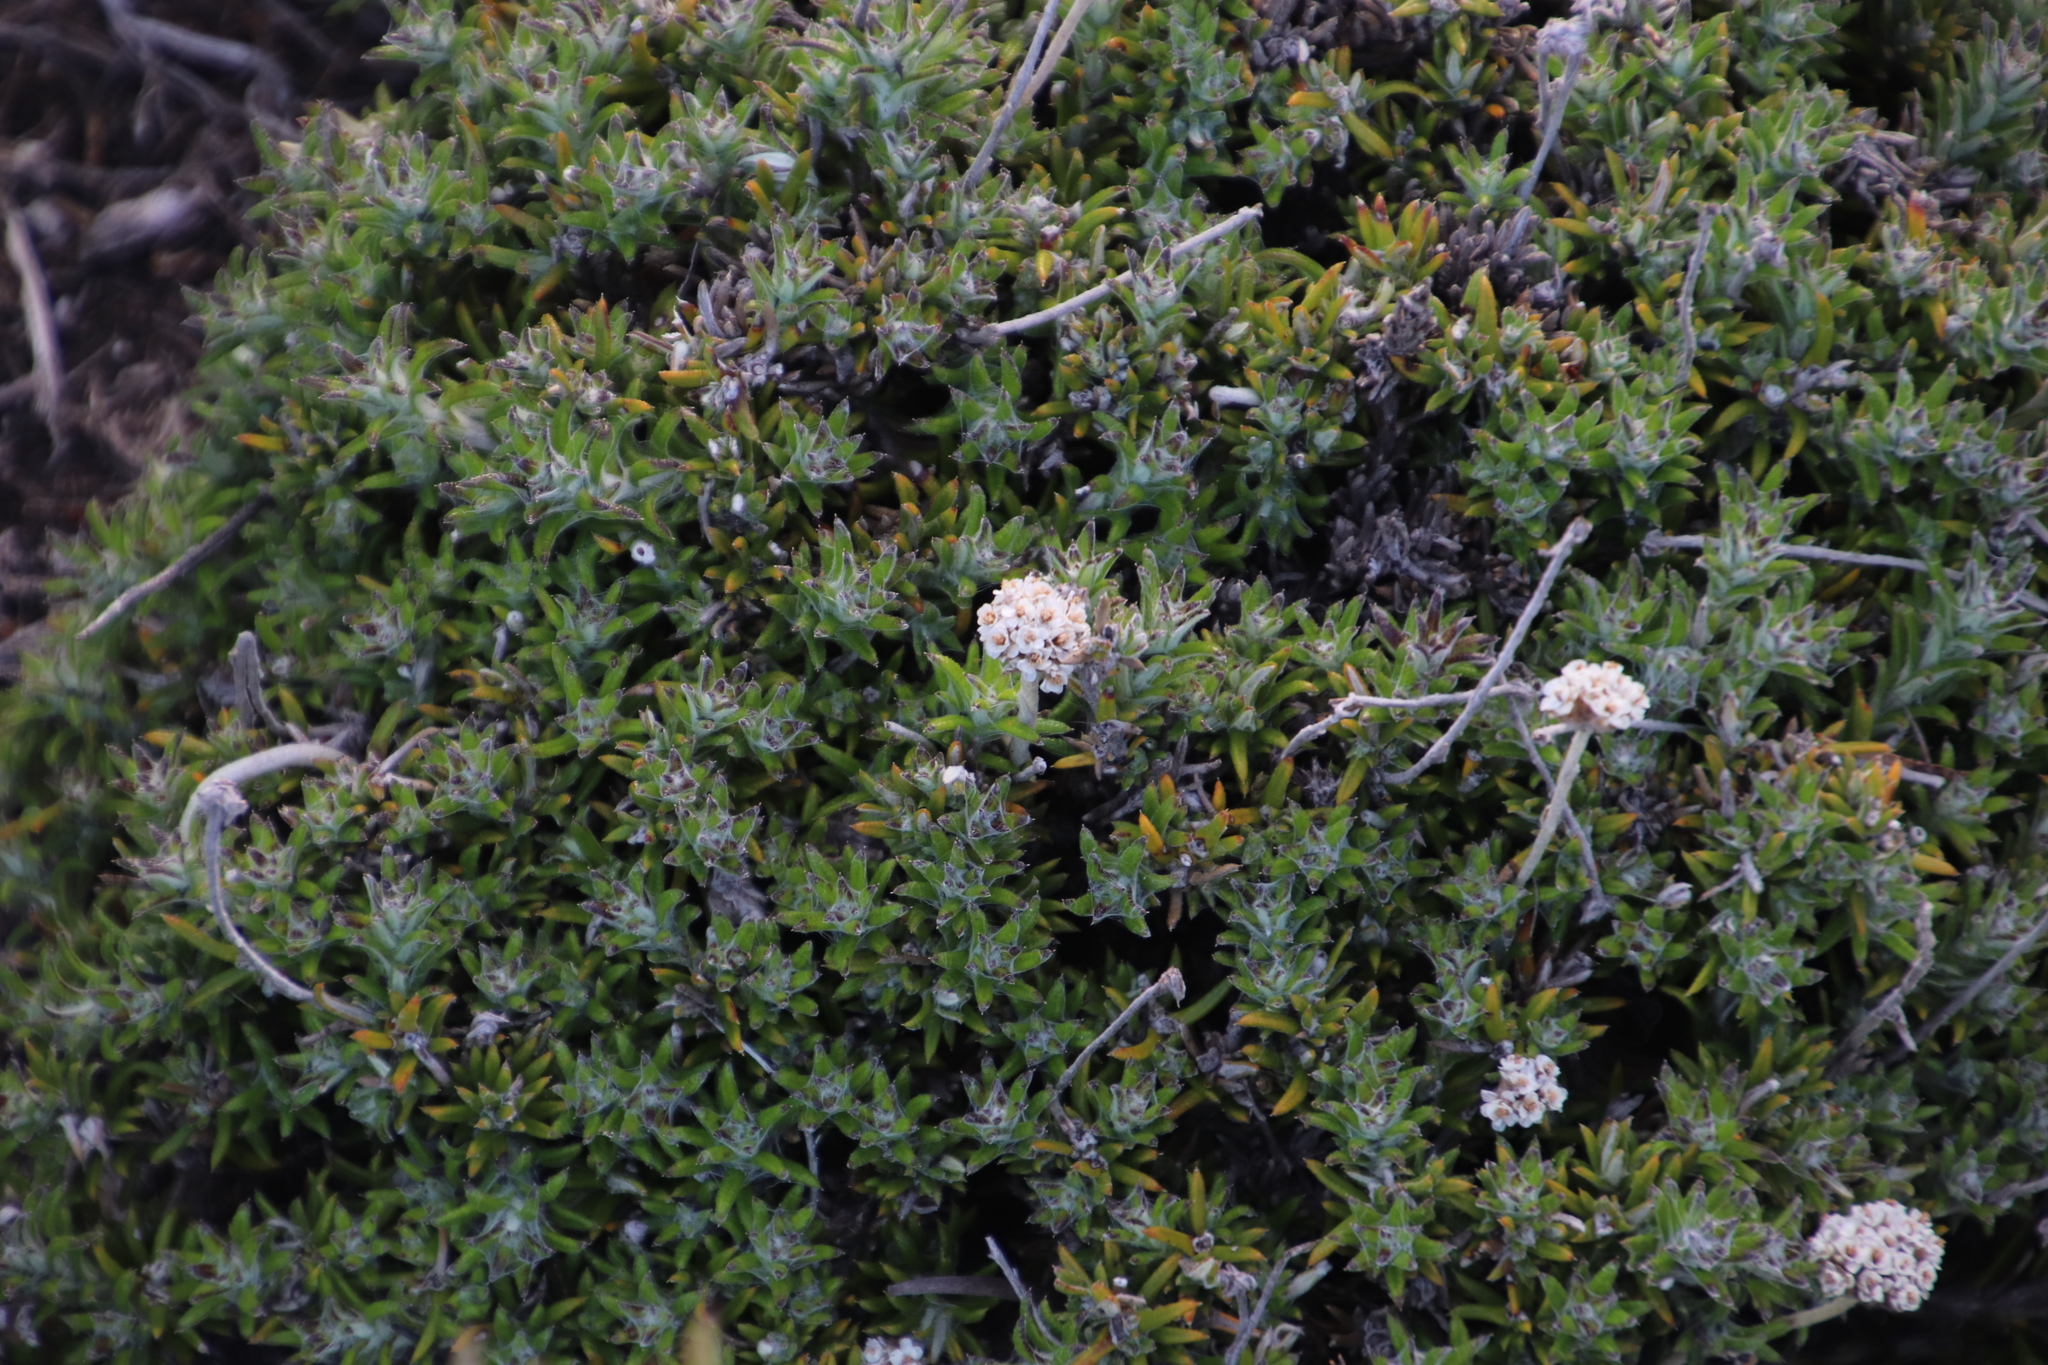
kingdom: Plantae
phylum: Tracheophyta
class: Magnoliopsida
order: Asterales
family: Asteraceae
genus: Anaxeton
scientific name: Anaxeton asperum
